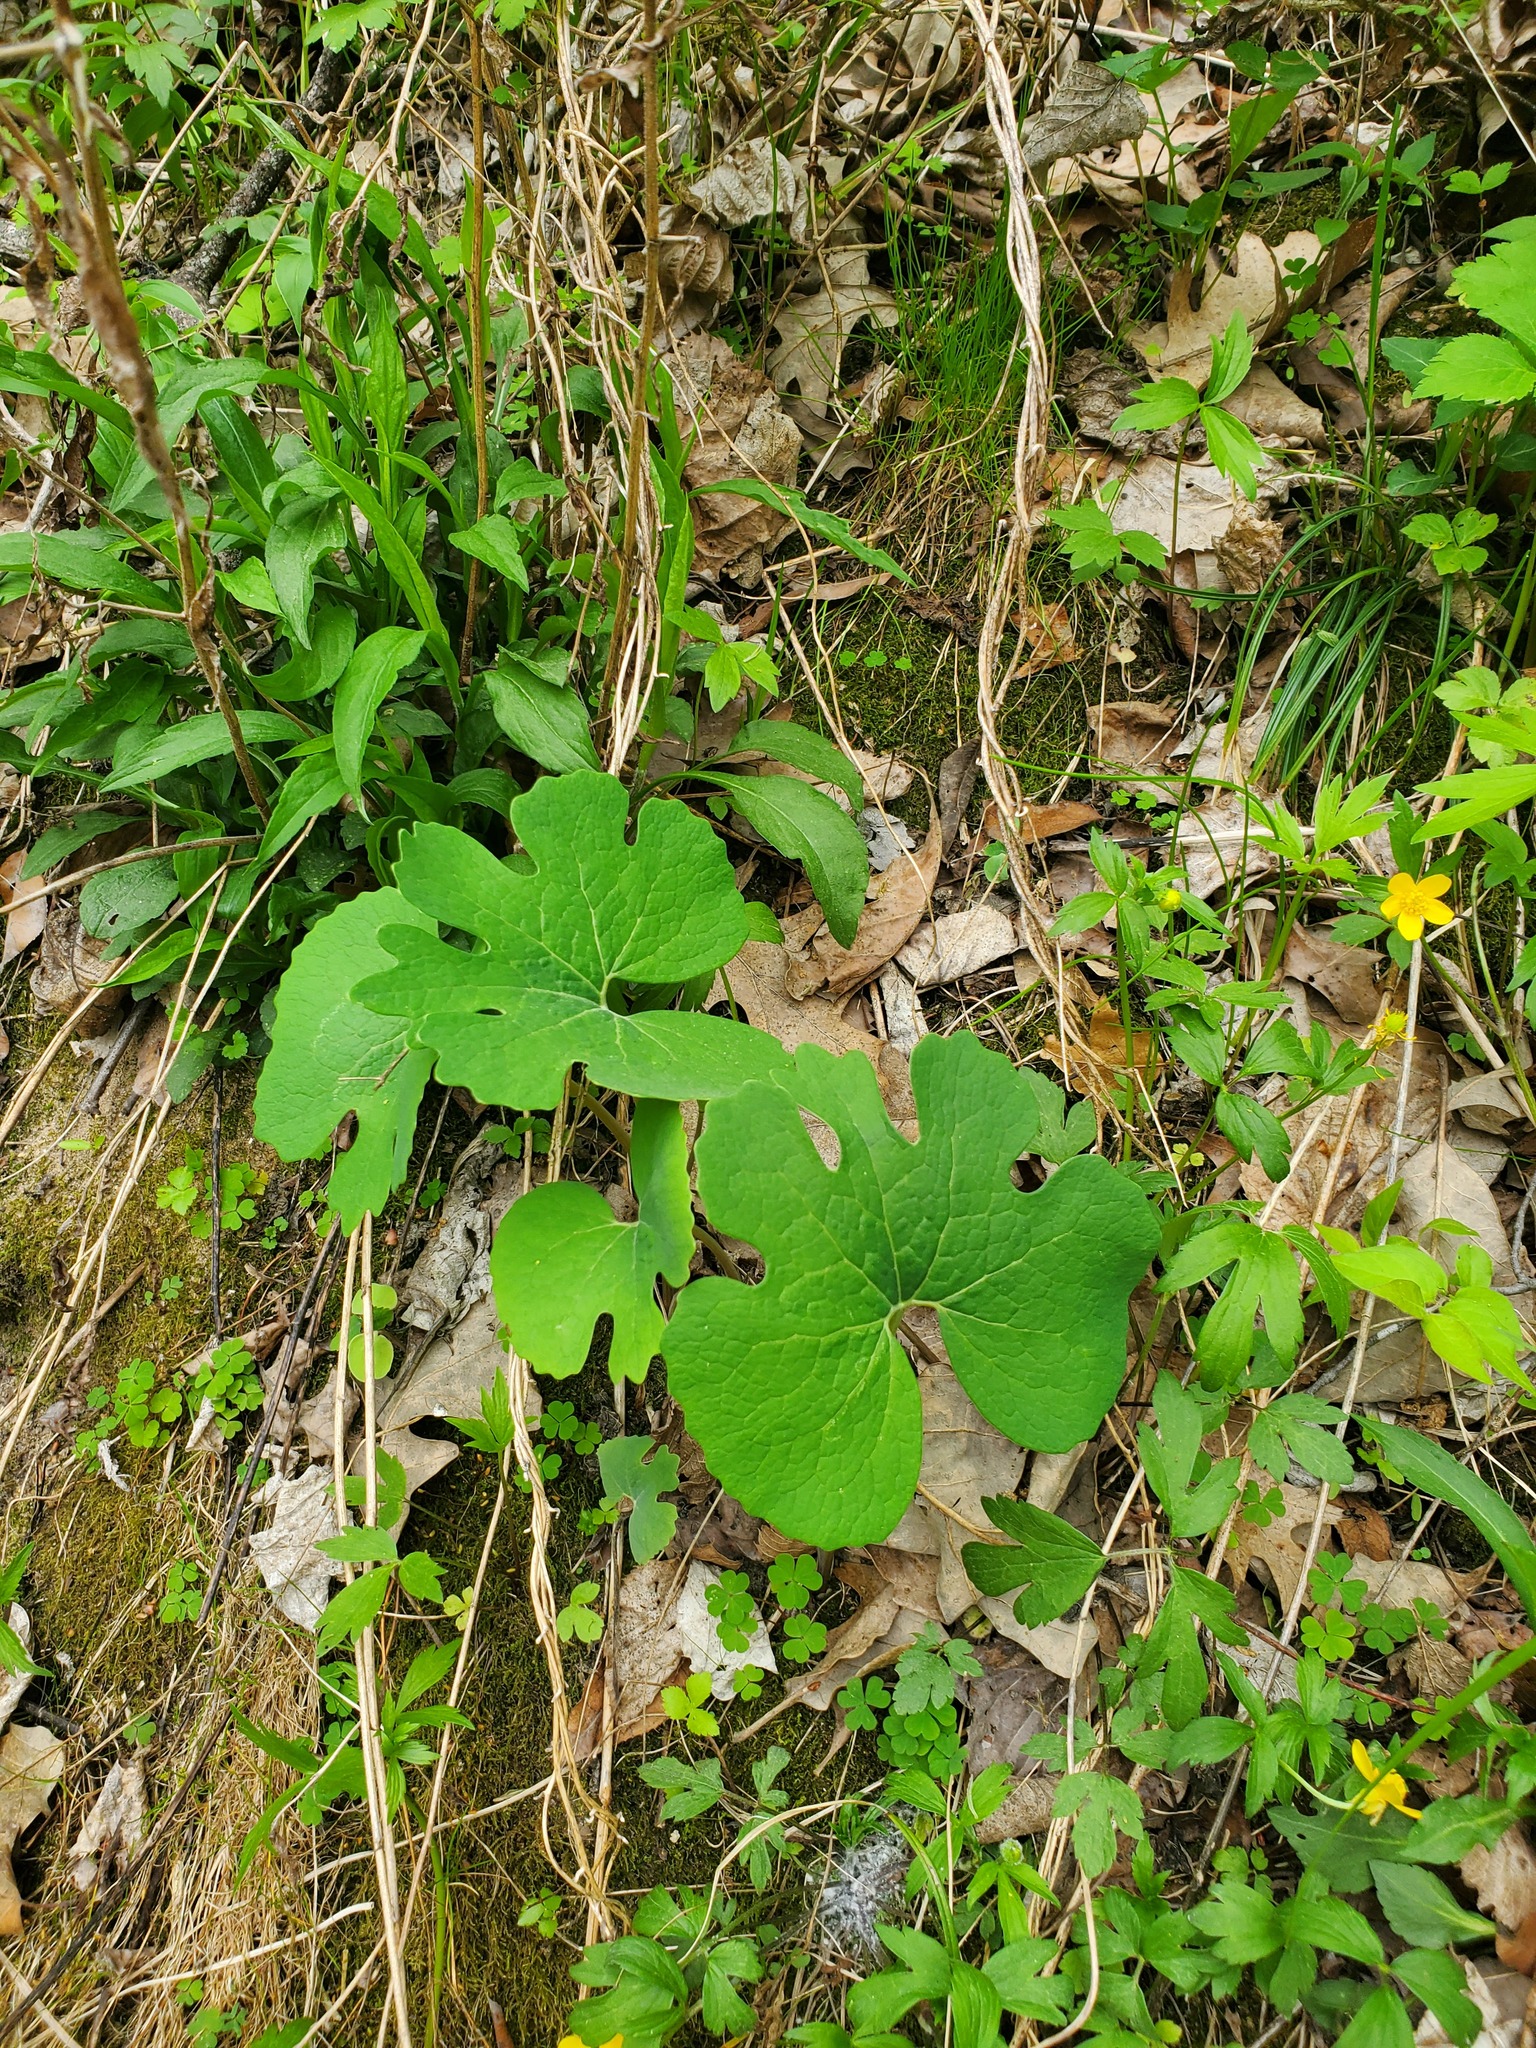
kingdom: Plantae
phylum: Tracheophyta
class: Magnoliopsida
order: Ranunculales
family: Papaveraceae
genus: Sanguinaria
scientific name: Sanguinaria canadensis
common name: Bloodroot
